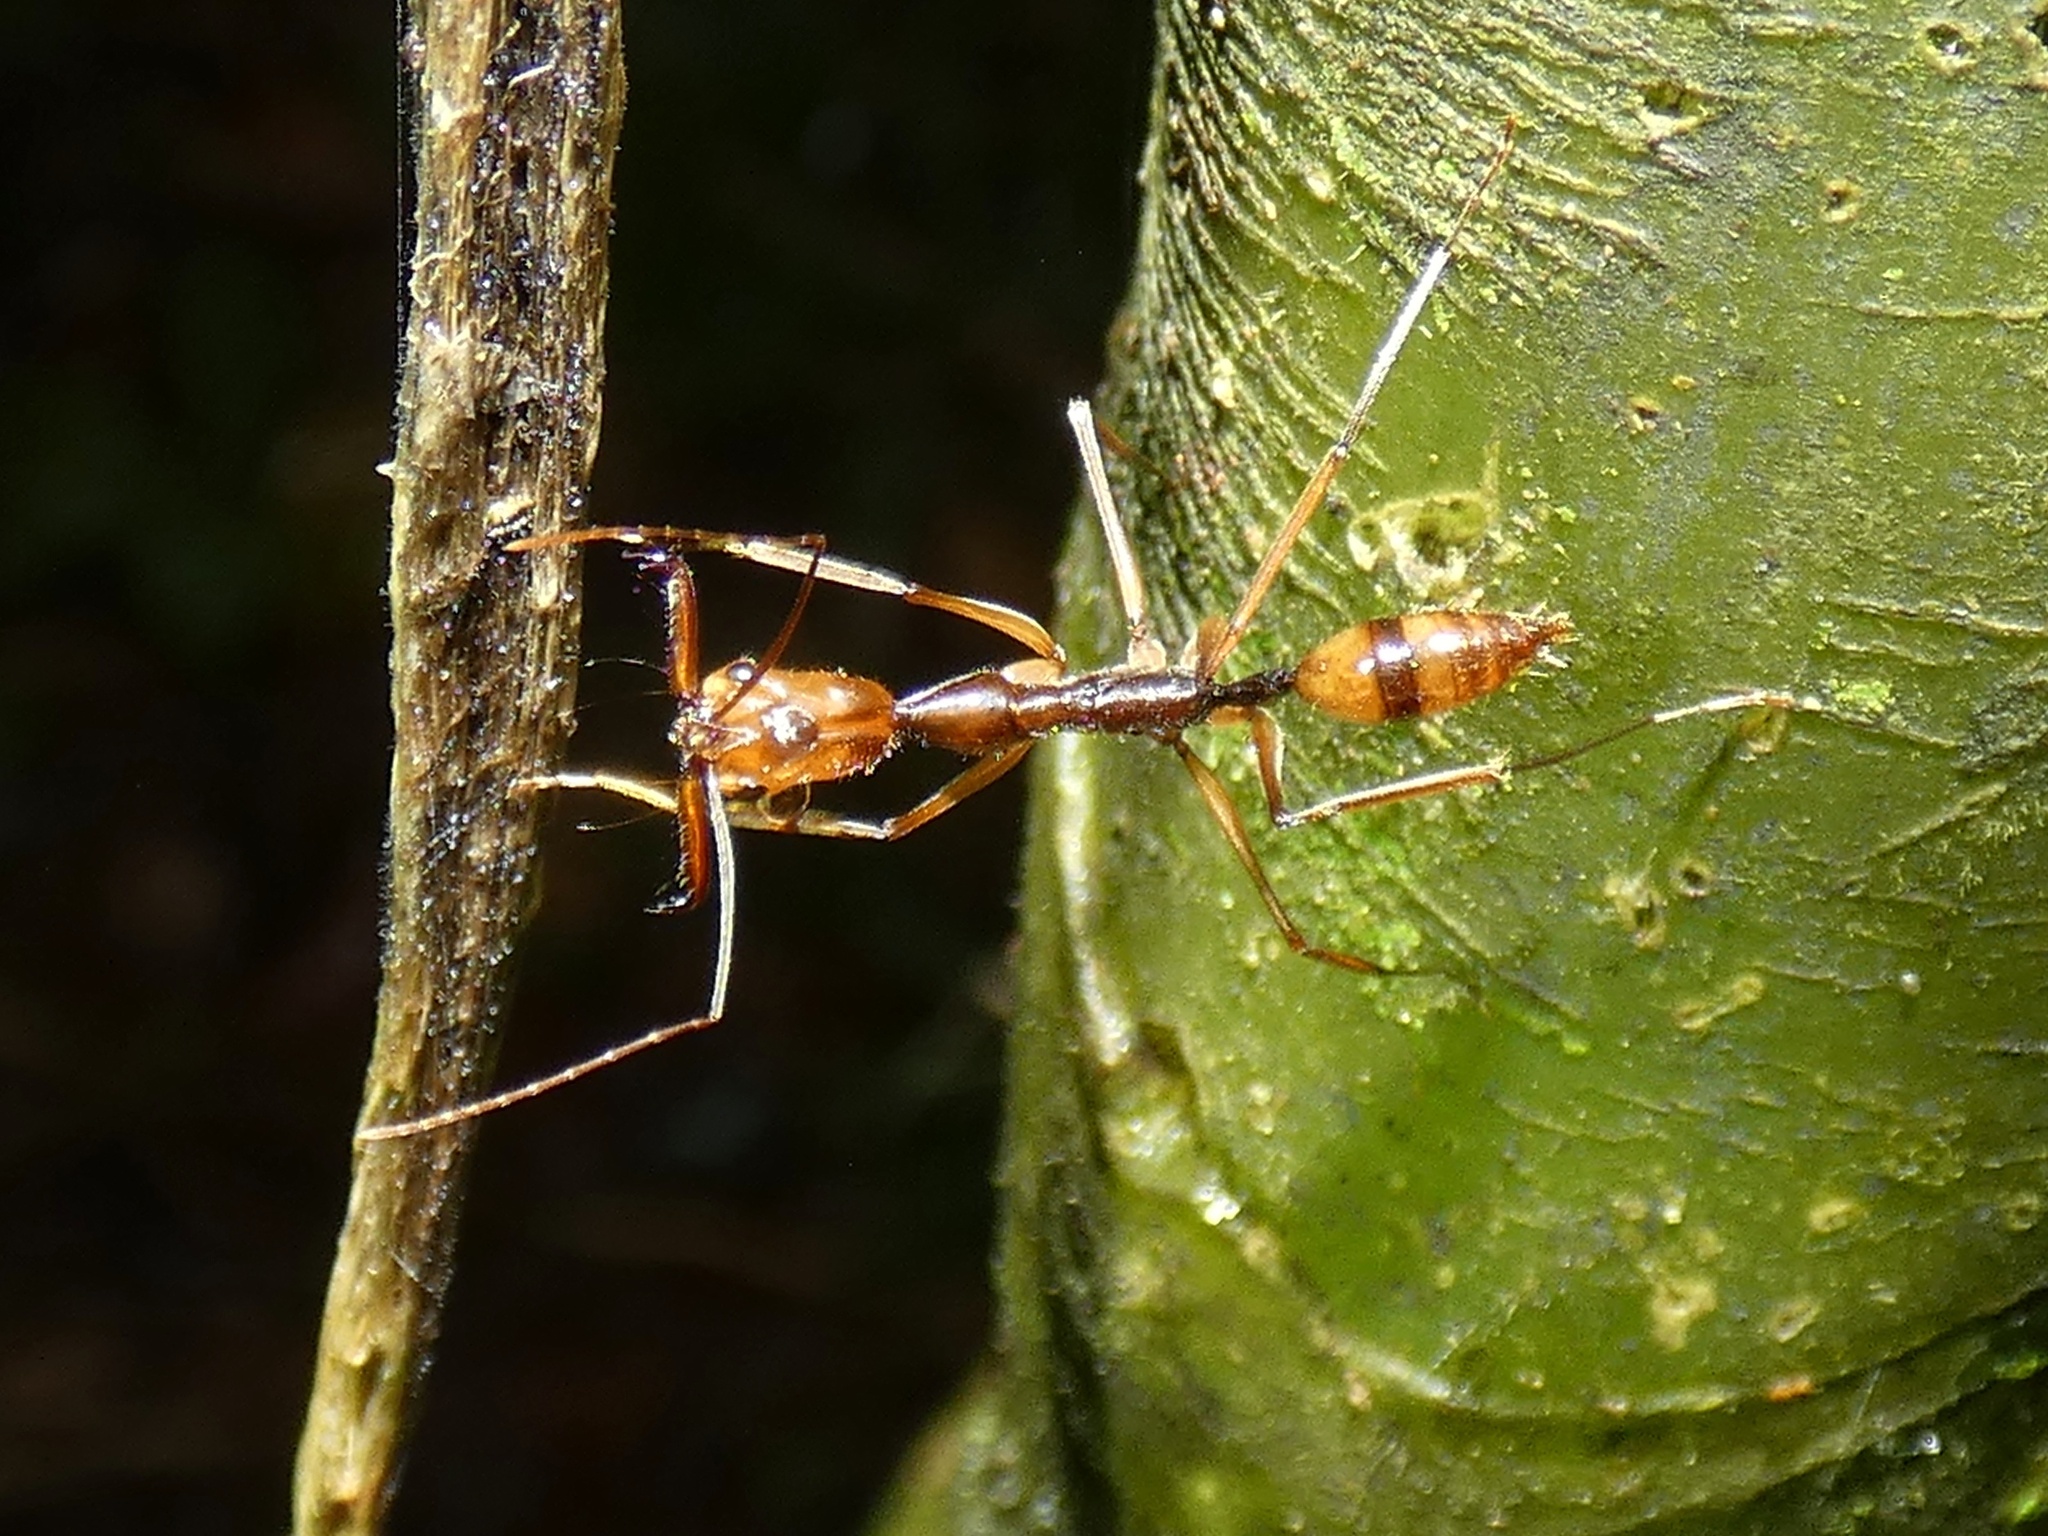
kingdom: Animalia
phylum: Arthropoda
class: Insecta
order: Hymenoptera
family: Formicidae
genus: Odontomachus
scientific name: Odontomachus hastatus
